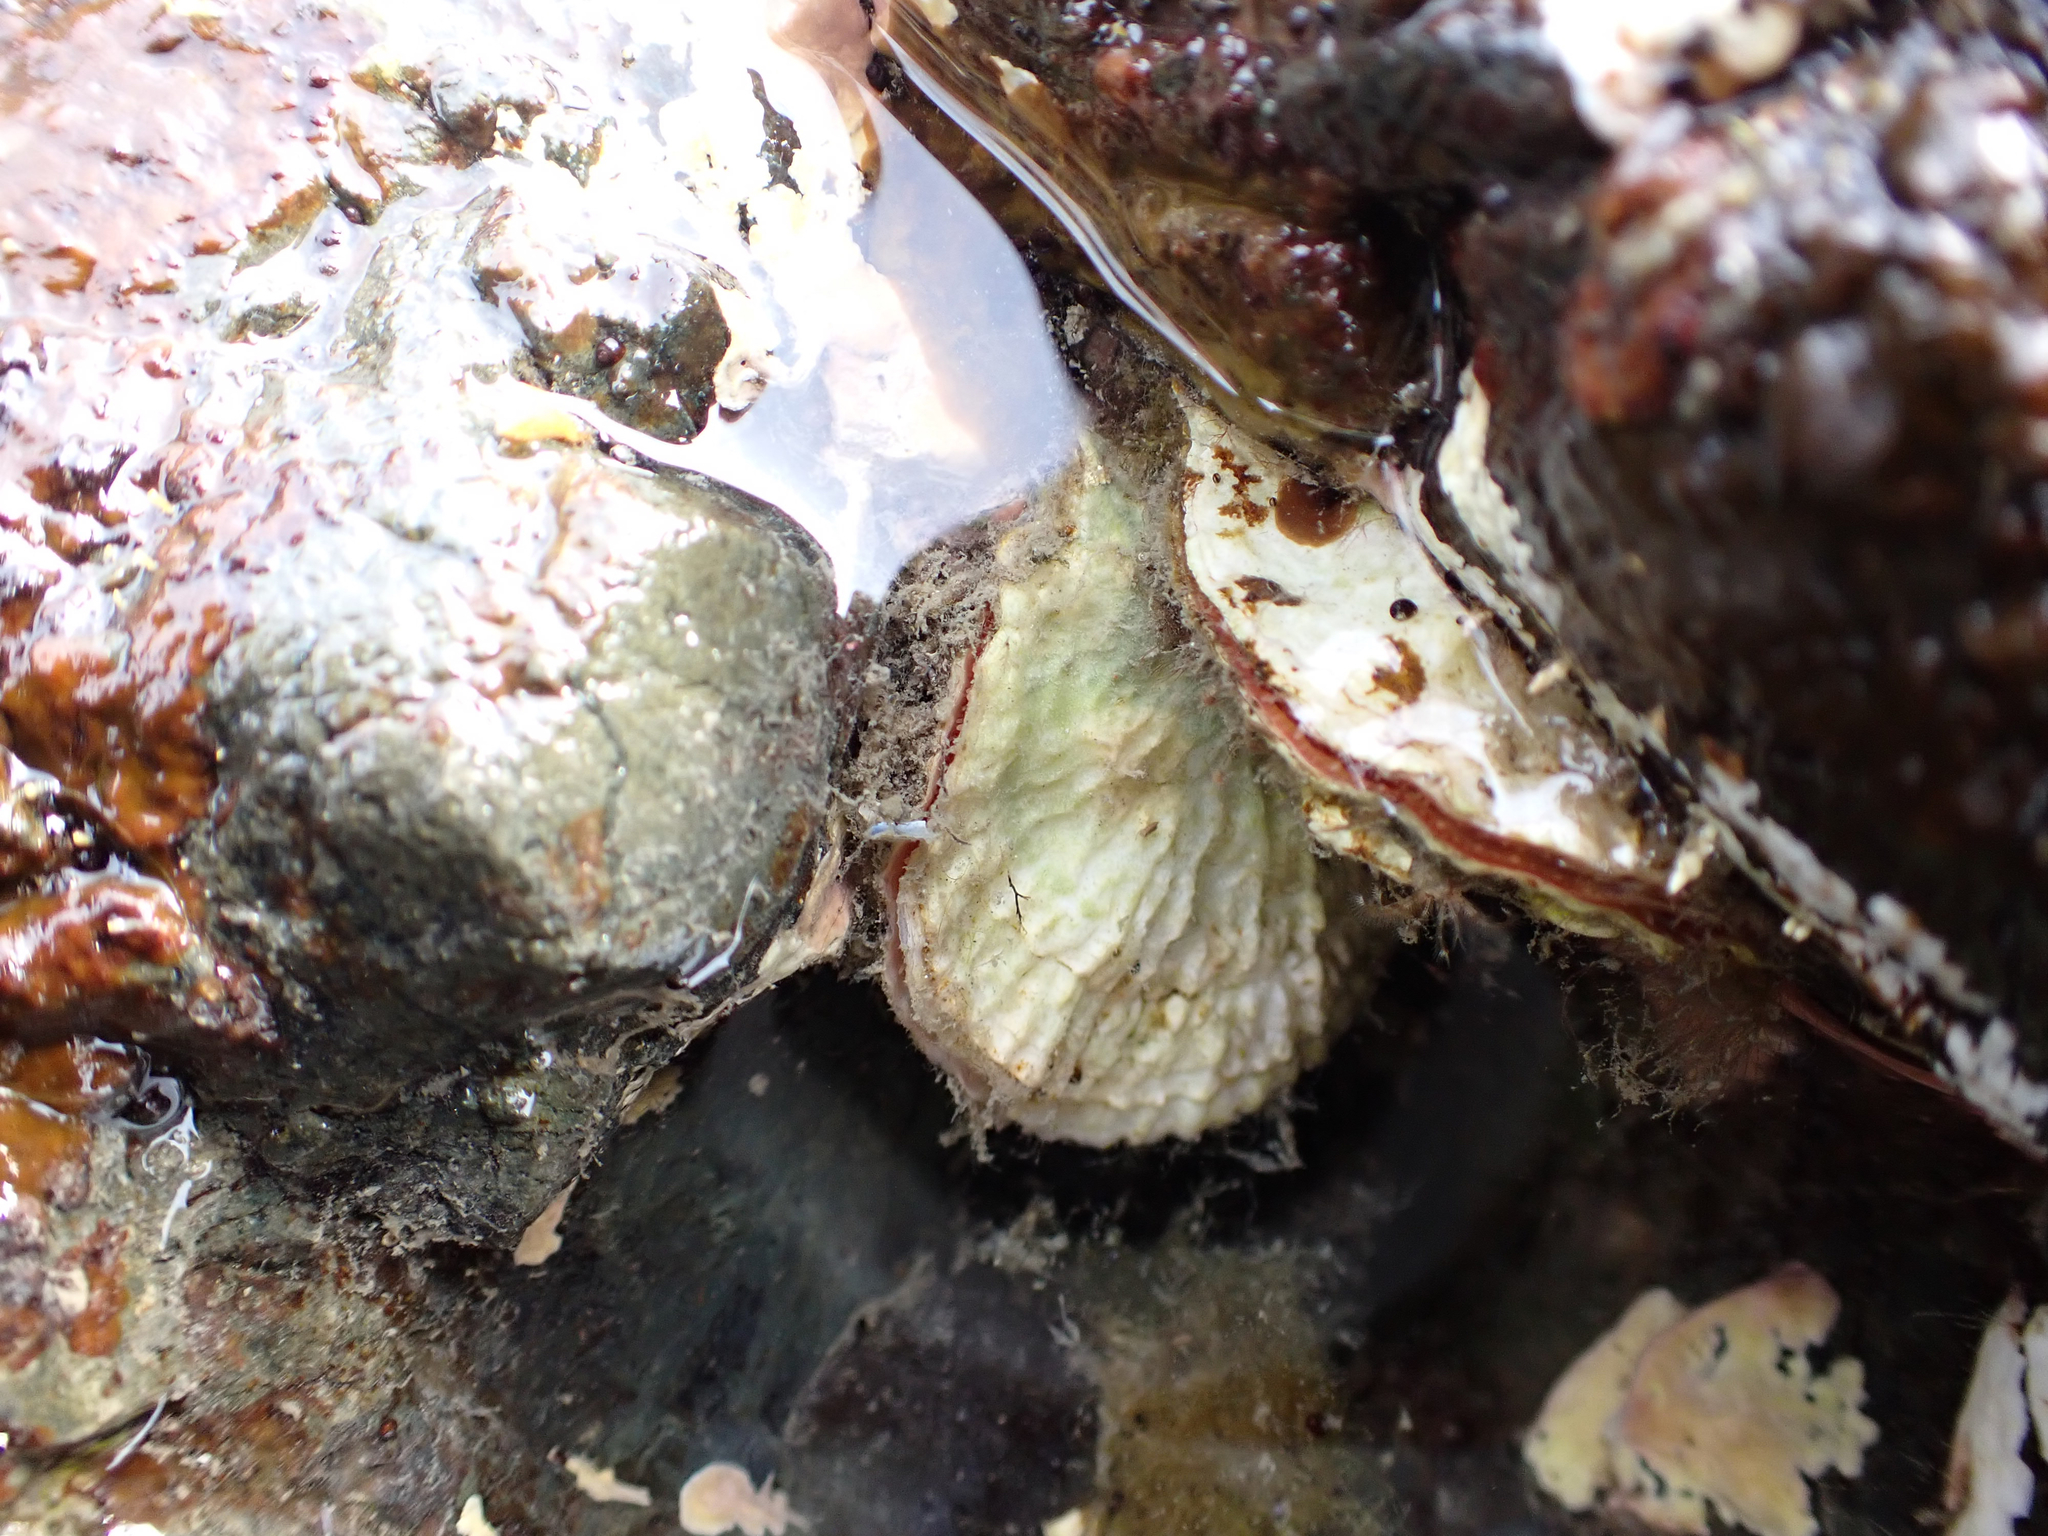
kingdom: Animalia
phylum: Mollusca
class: Bivalvia
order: Pectinida
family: Anomiidae
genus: Pododesmus
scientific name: Pododesmus macrochisma
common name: Alaska jingle
